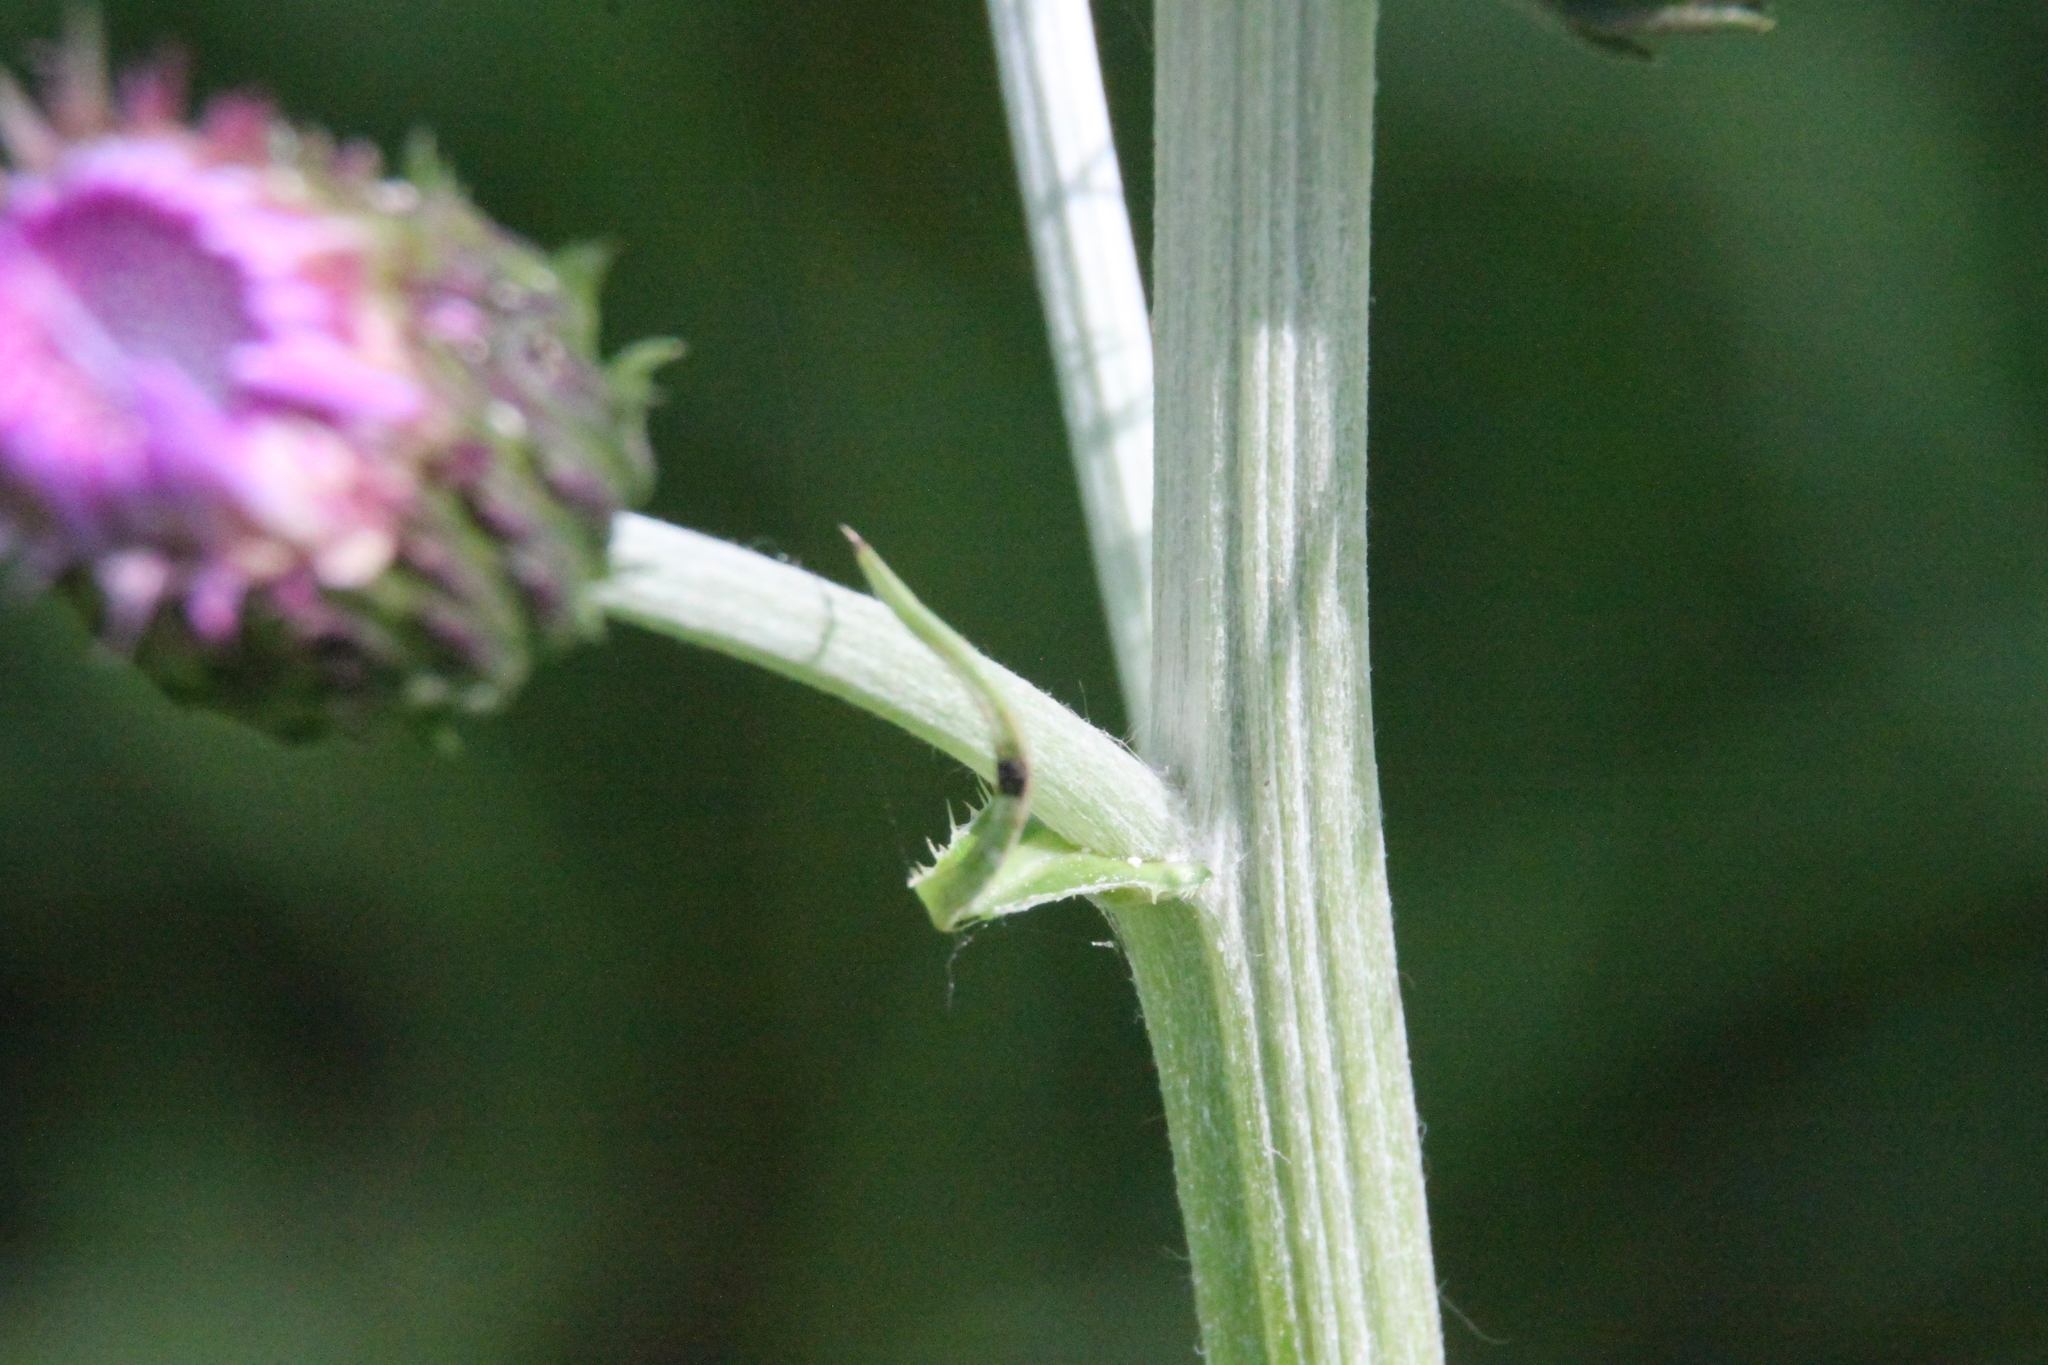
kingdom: Plantae
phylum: Tracheophyta
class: Magnoliopsida
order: Asterales
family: Asteraceae
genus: Cirsium
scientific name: Cirsium heterophyllum
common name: Melancholy thistle
